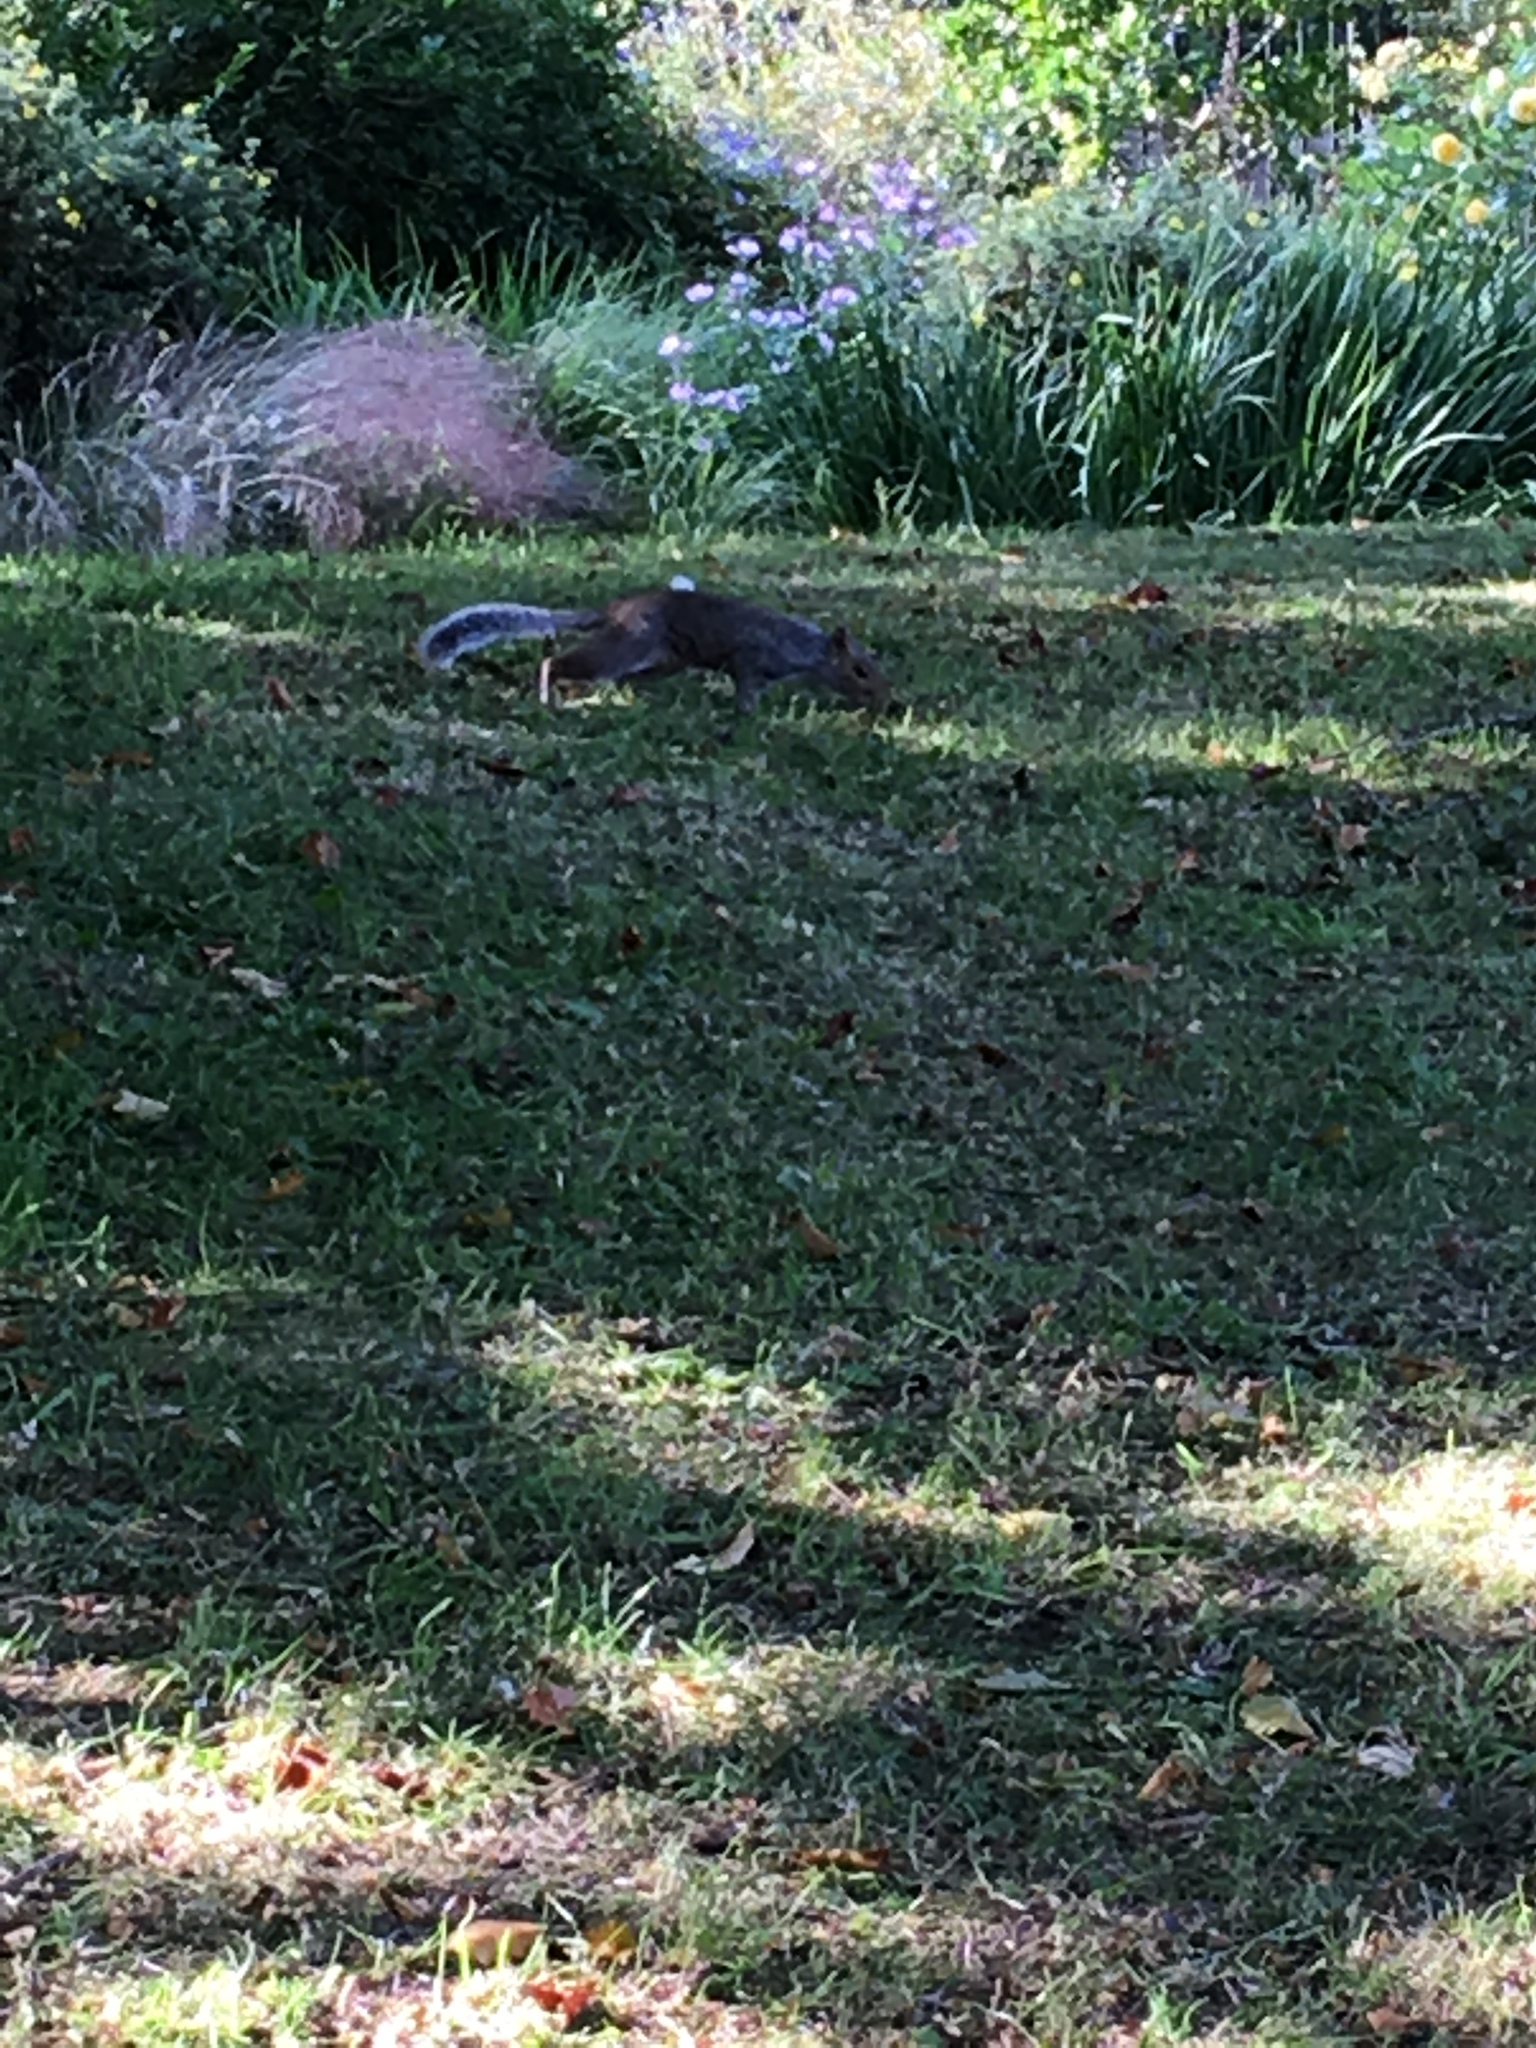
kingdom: Animalia
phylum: Chordata
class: Mammalia
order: Rodentia
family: Sciuridae
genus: Sciurus
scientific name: Sciurus carolinensis
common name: Eastern gray squirrel
